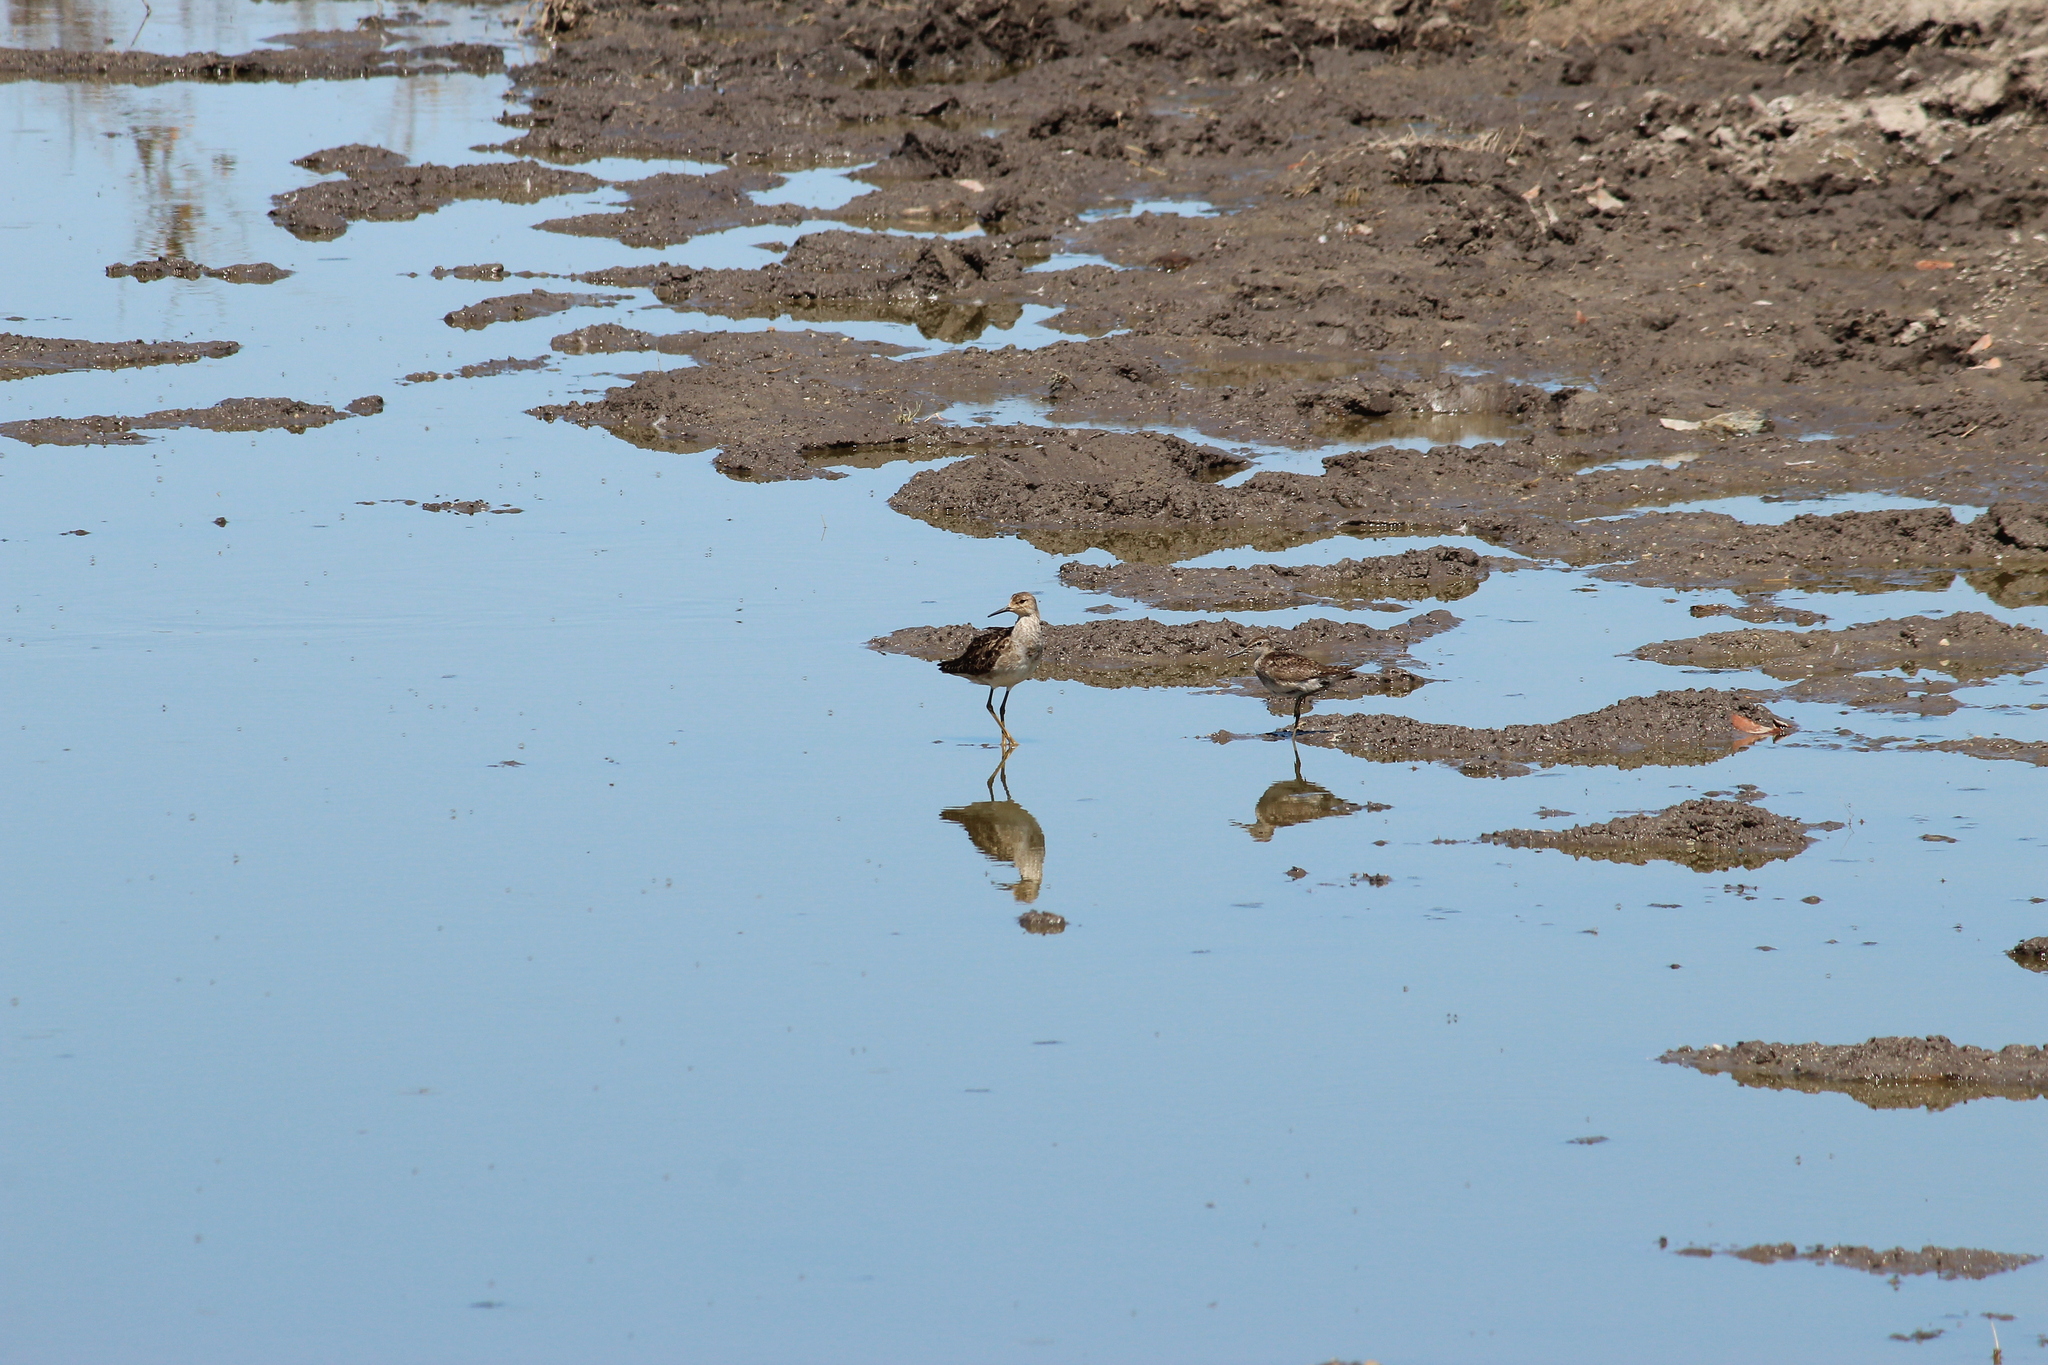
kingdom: Animalia
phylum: Chordata
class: Aves
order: Charadriiformes
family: Scolopacidae
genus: Calidris
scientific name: Calidris pugnax
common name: Ruff
